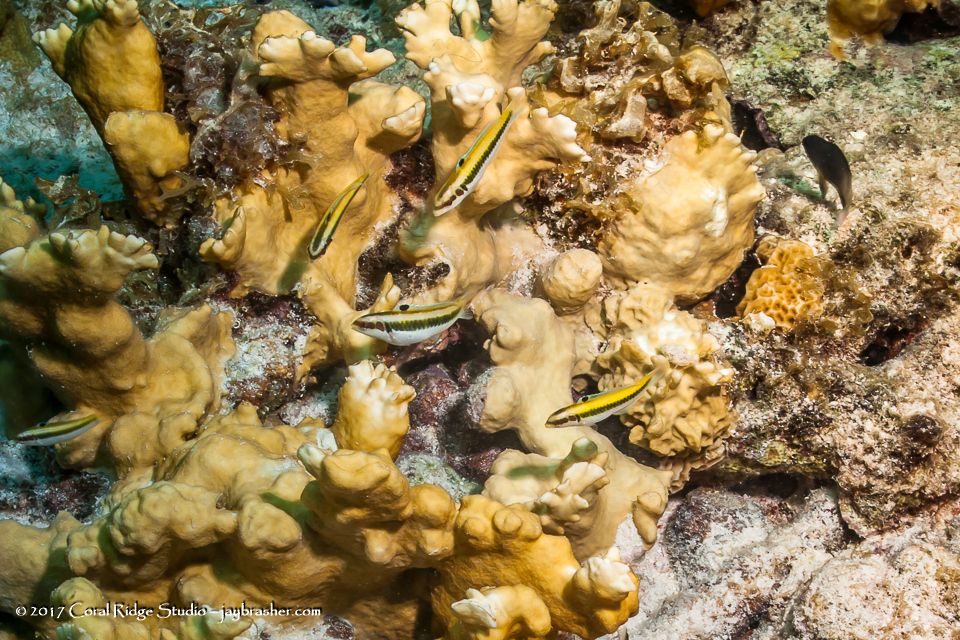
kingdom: Animalia
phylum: Chordata
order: Perciformes
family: Labridae
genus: Thalassoma
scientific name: Thalassoma bifasciatum
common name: Bluehead wrasse
